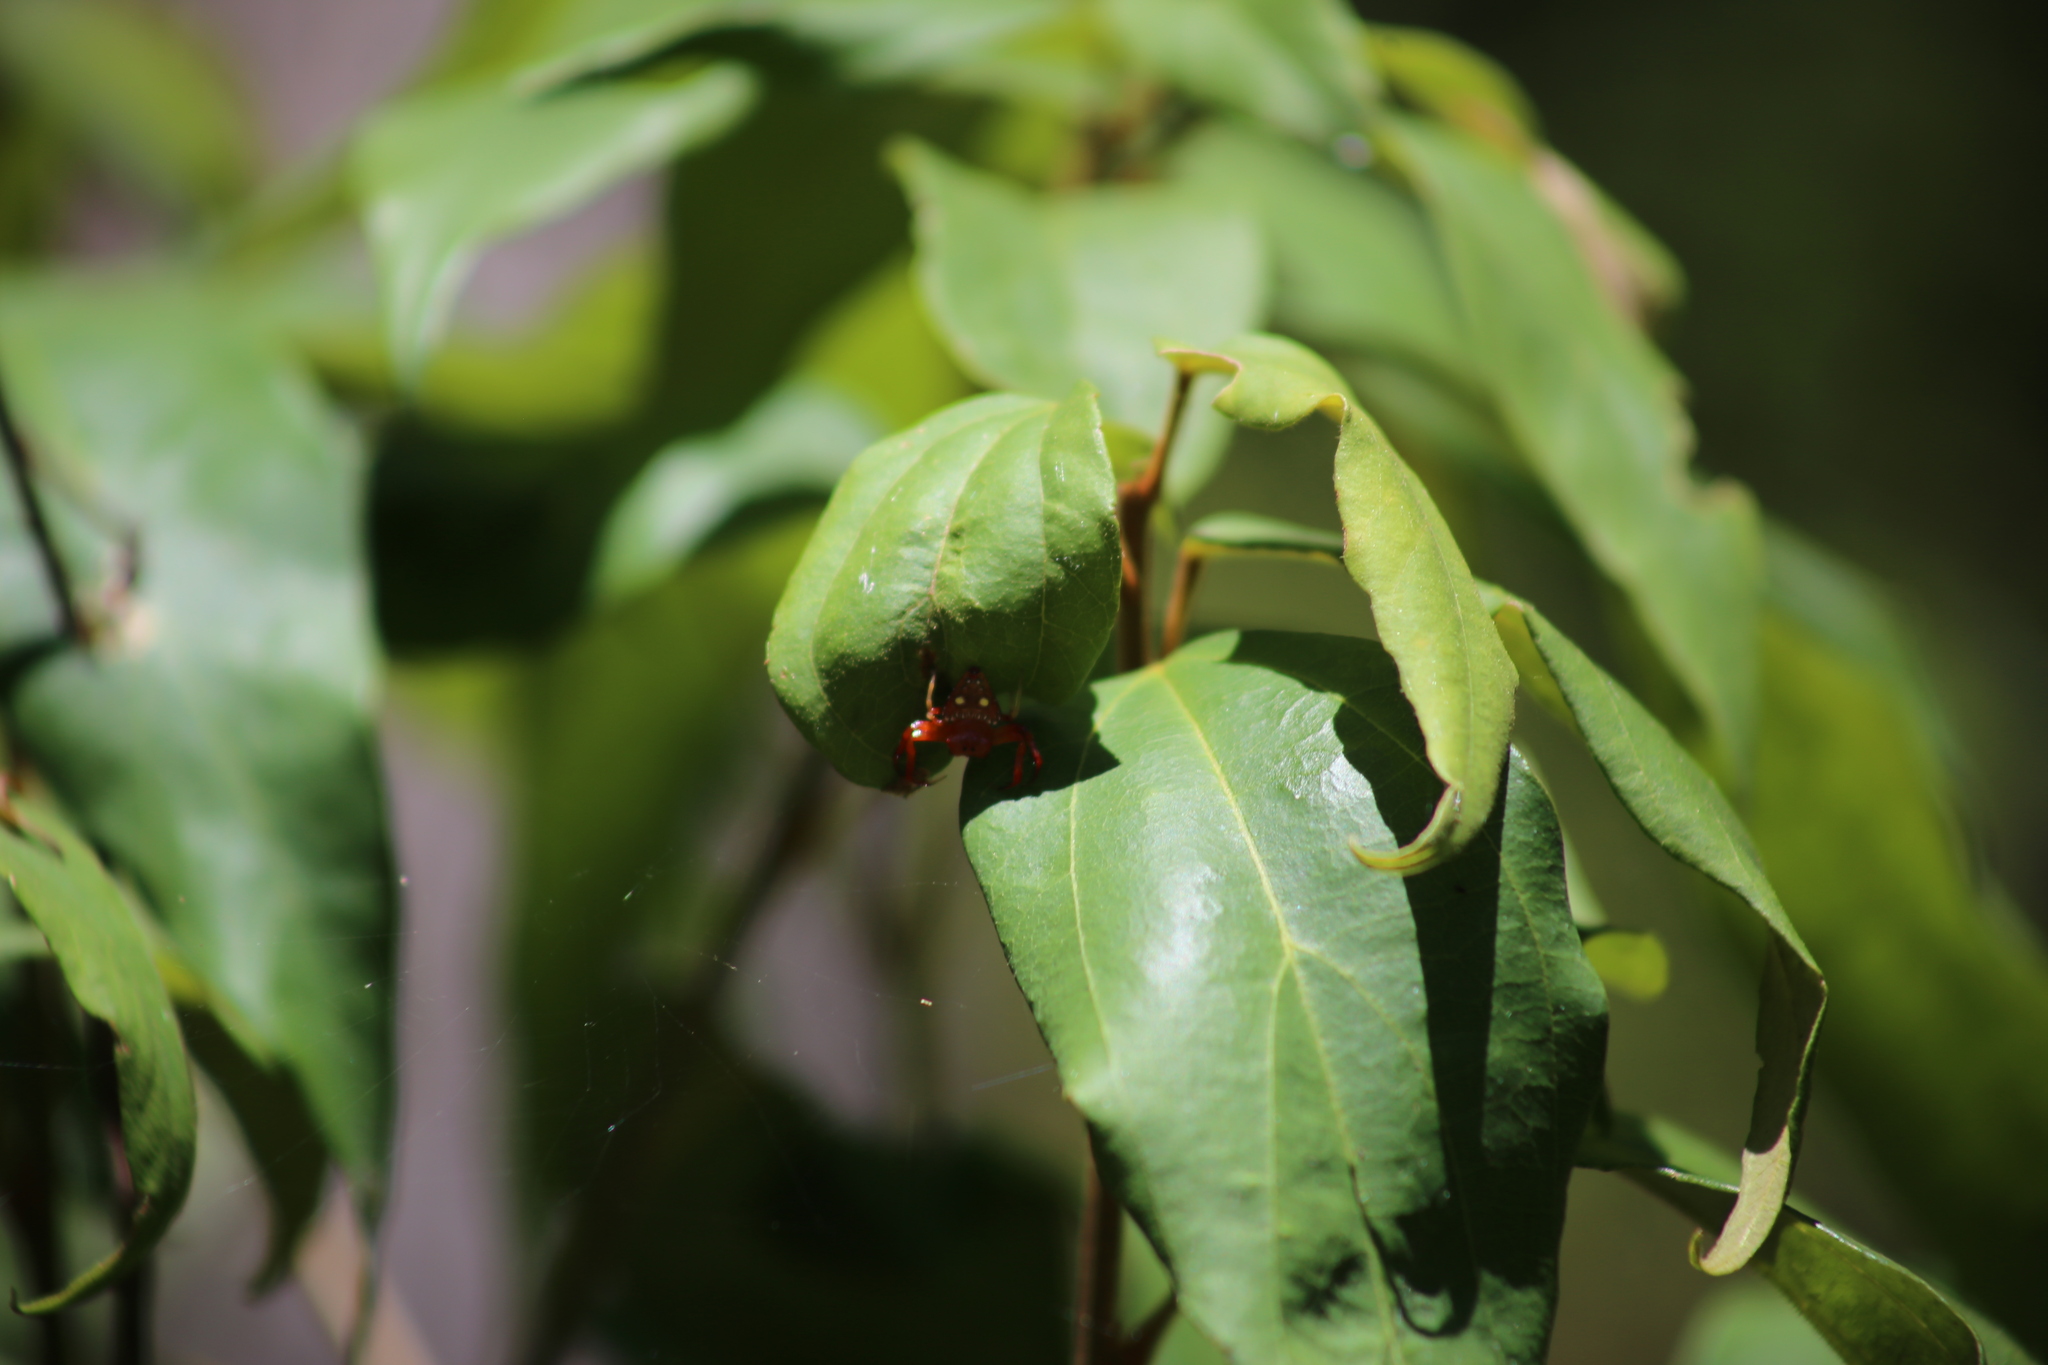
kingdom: Animalia
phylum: Arthropoda
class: Arachnida
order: Araneae
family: Arkyidae
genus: Arkys
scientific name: Arkys lancearius
